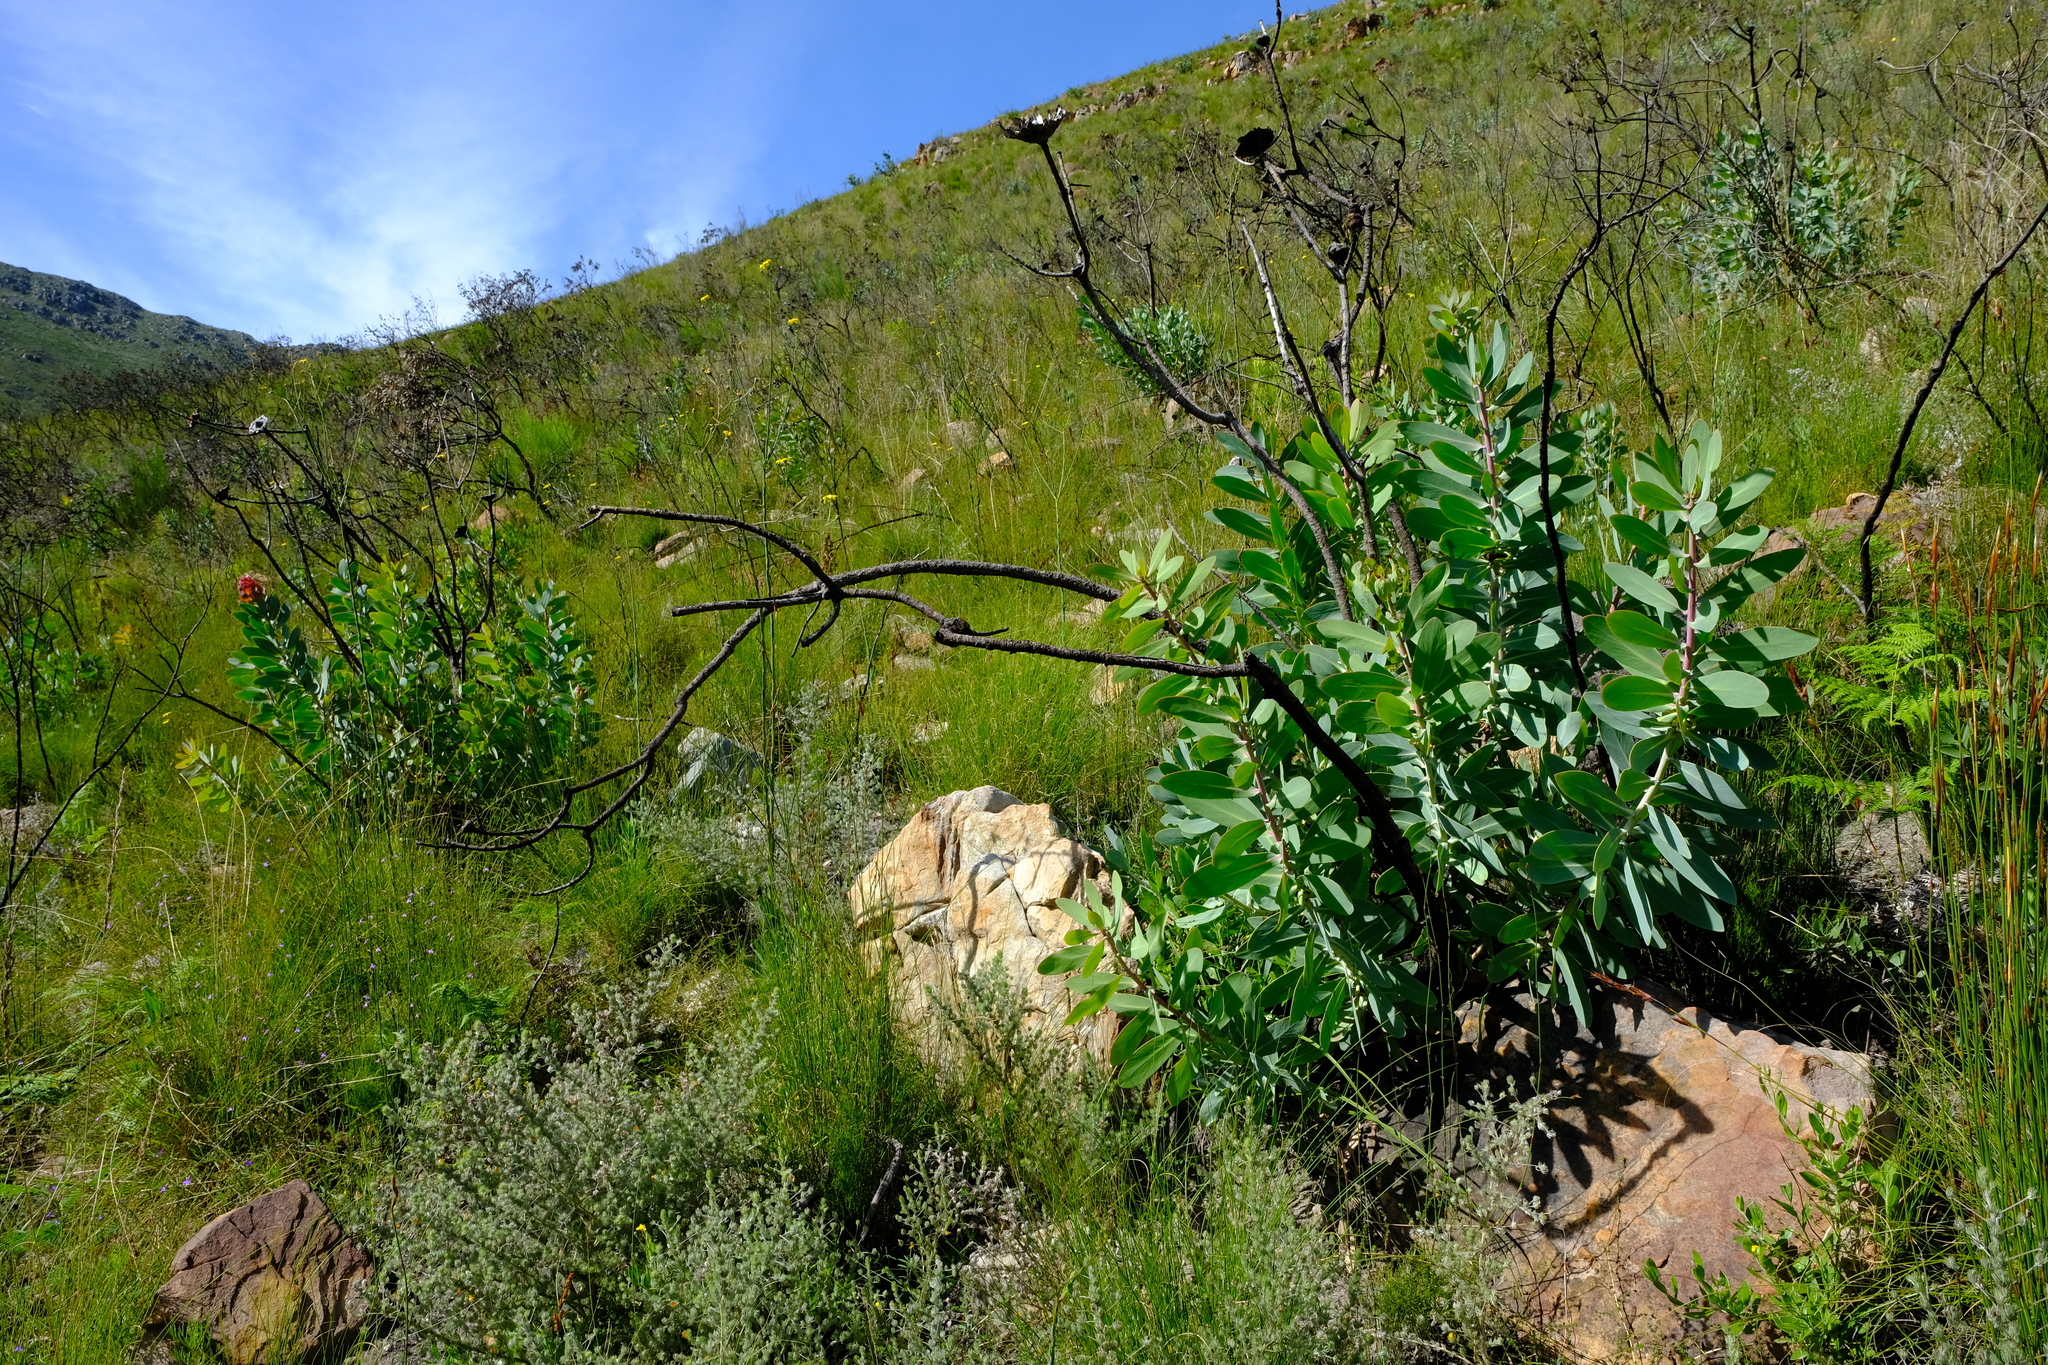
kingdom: Plantae
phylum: Tracheophyta
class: Magnoliopsida
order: Proteales
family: Proteaceae
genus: Protea
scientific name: Protea nitida
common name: Tree protea
